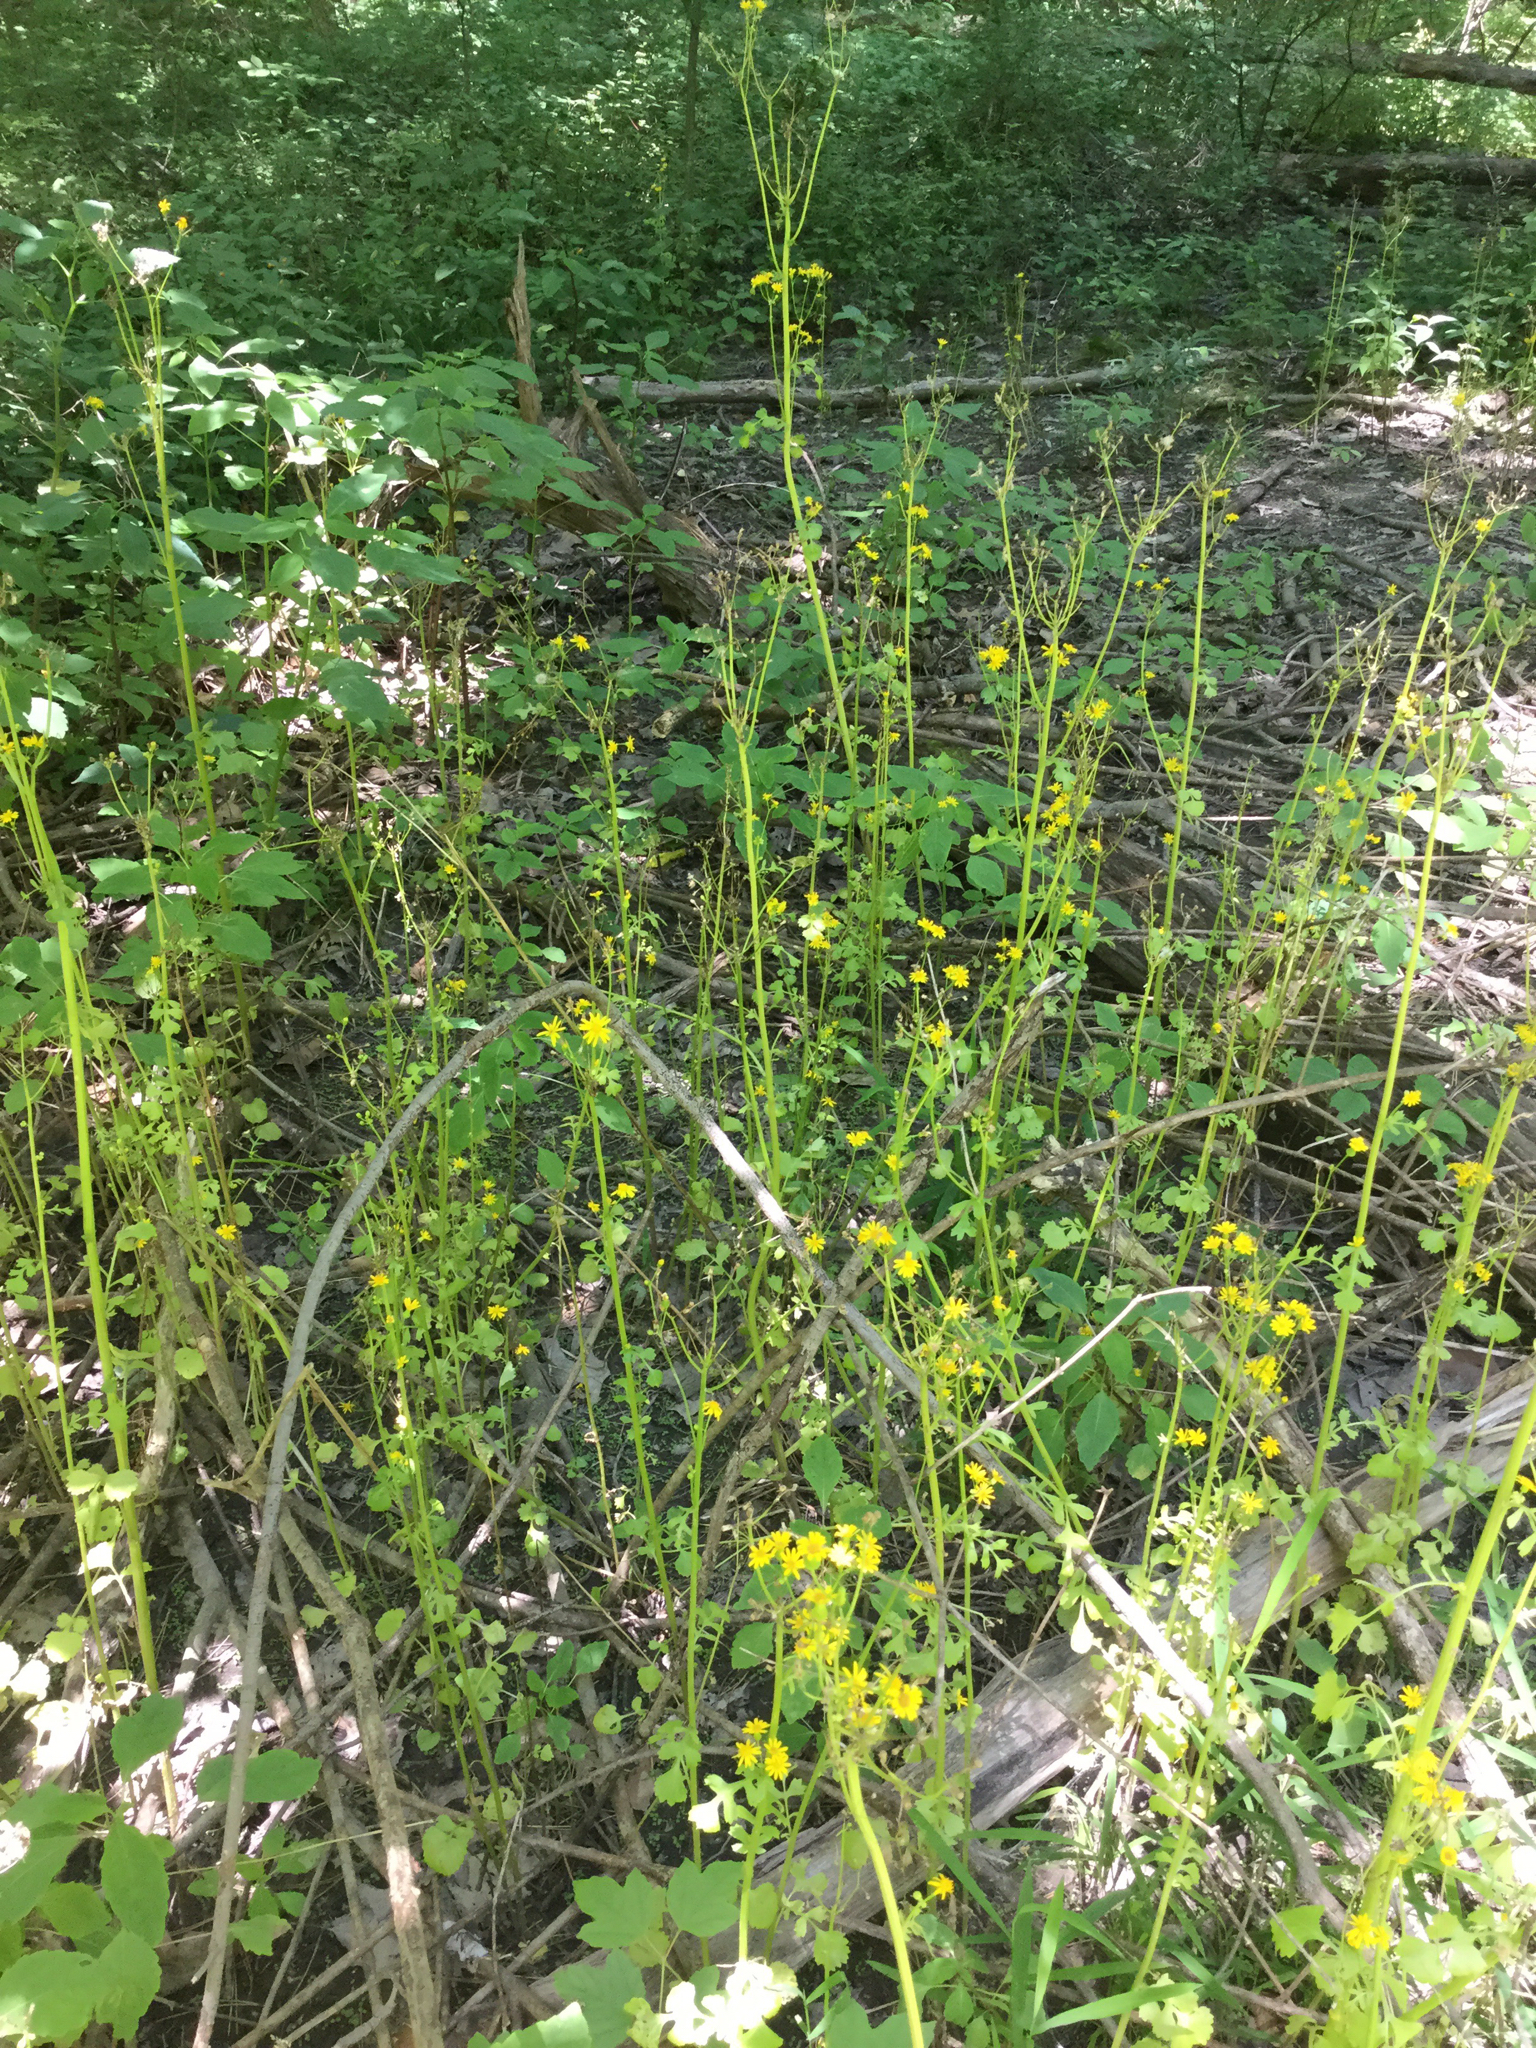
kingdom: Plantae
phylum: Tracheophyta
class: Magnoliopsida
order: Asterales
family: Asteraceae
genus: Packera
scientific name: Packera glabella
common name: Butterweed
